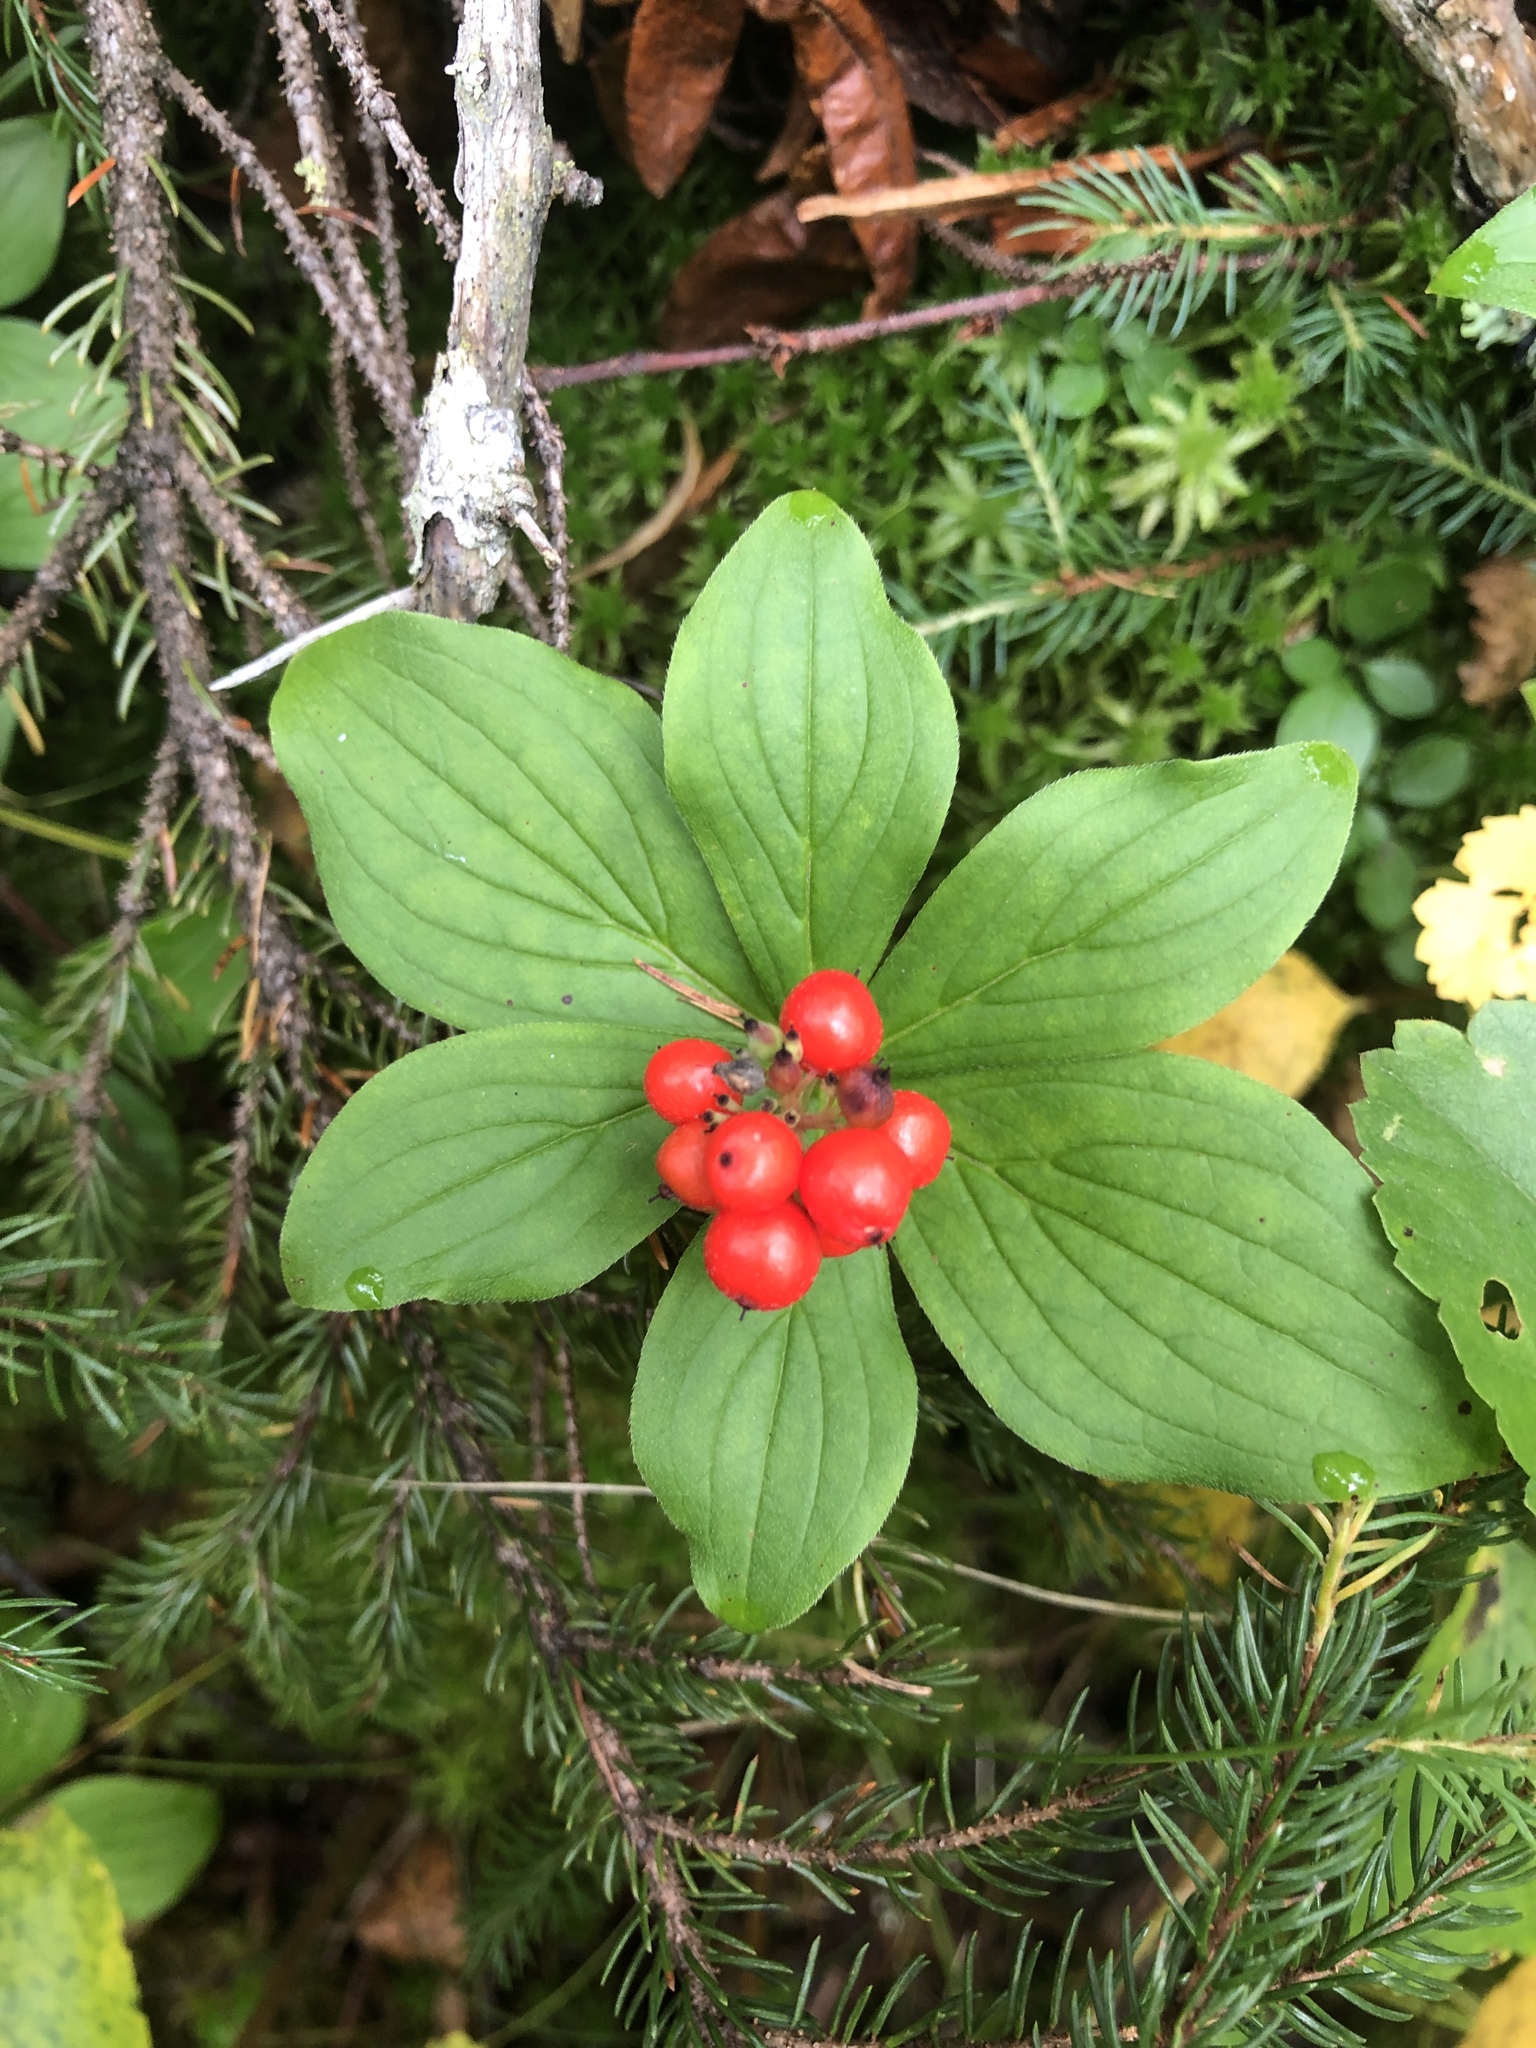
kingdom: Plantae
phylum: Tracheophyta
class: Magnoliopsida
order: Cornales
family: Cornaceae
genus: Cornus
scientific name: Cornus canadensis
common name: Creeping dogwood
